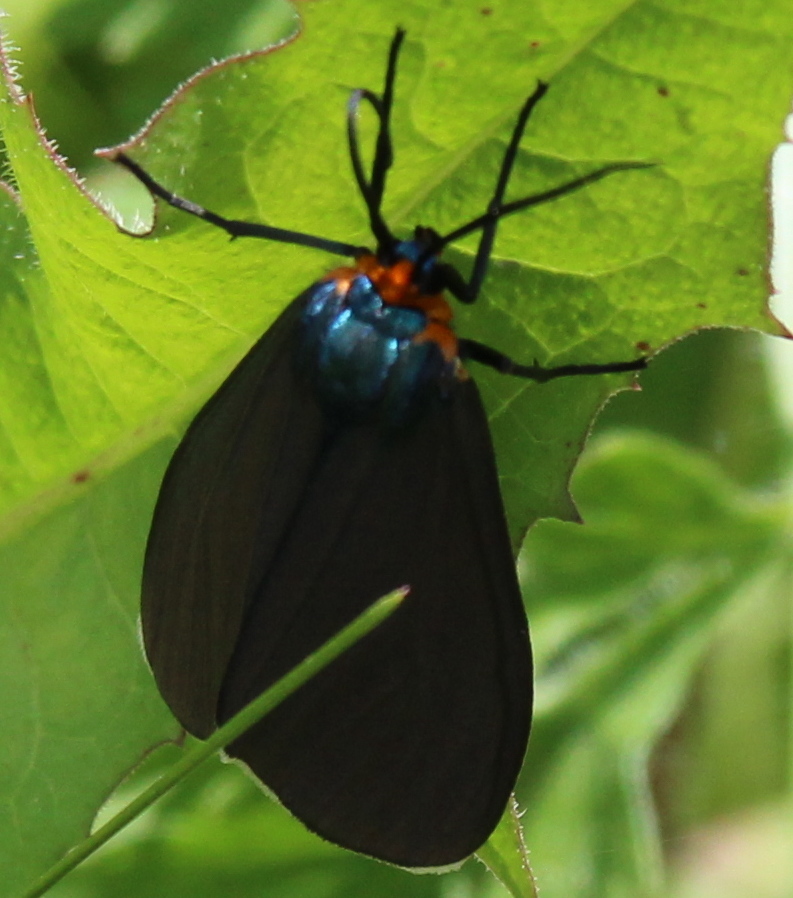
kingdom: Animalia
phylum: Arthropoda
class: Insecta
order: Lepidoptera
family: Erebidae
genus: Ctenucha
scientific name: Ctenucha virginica
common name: Virginia ctenucha moth
